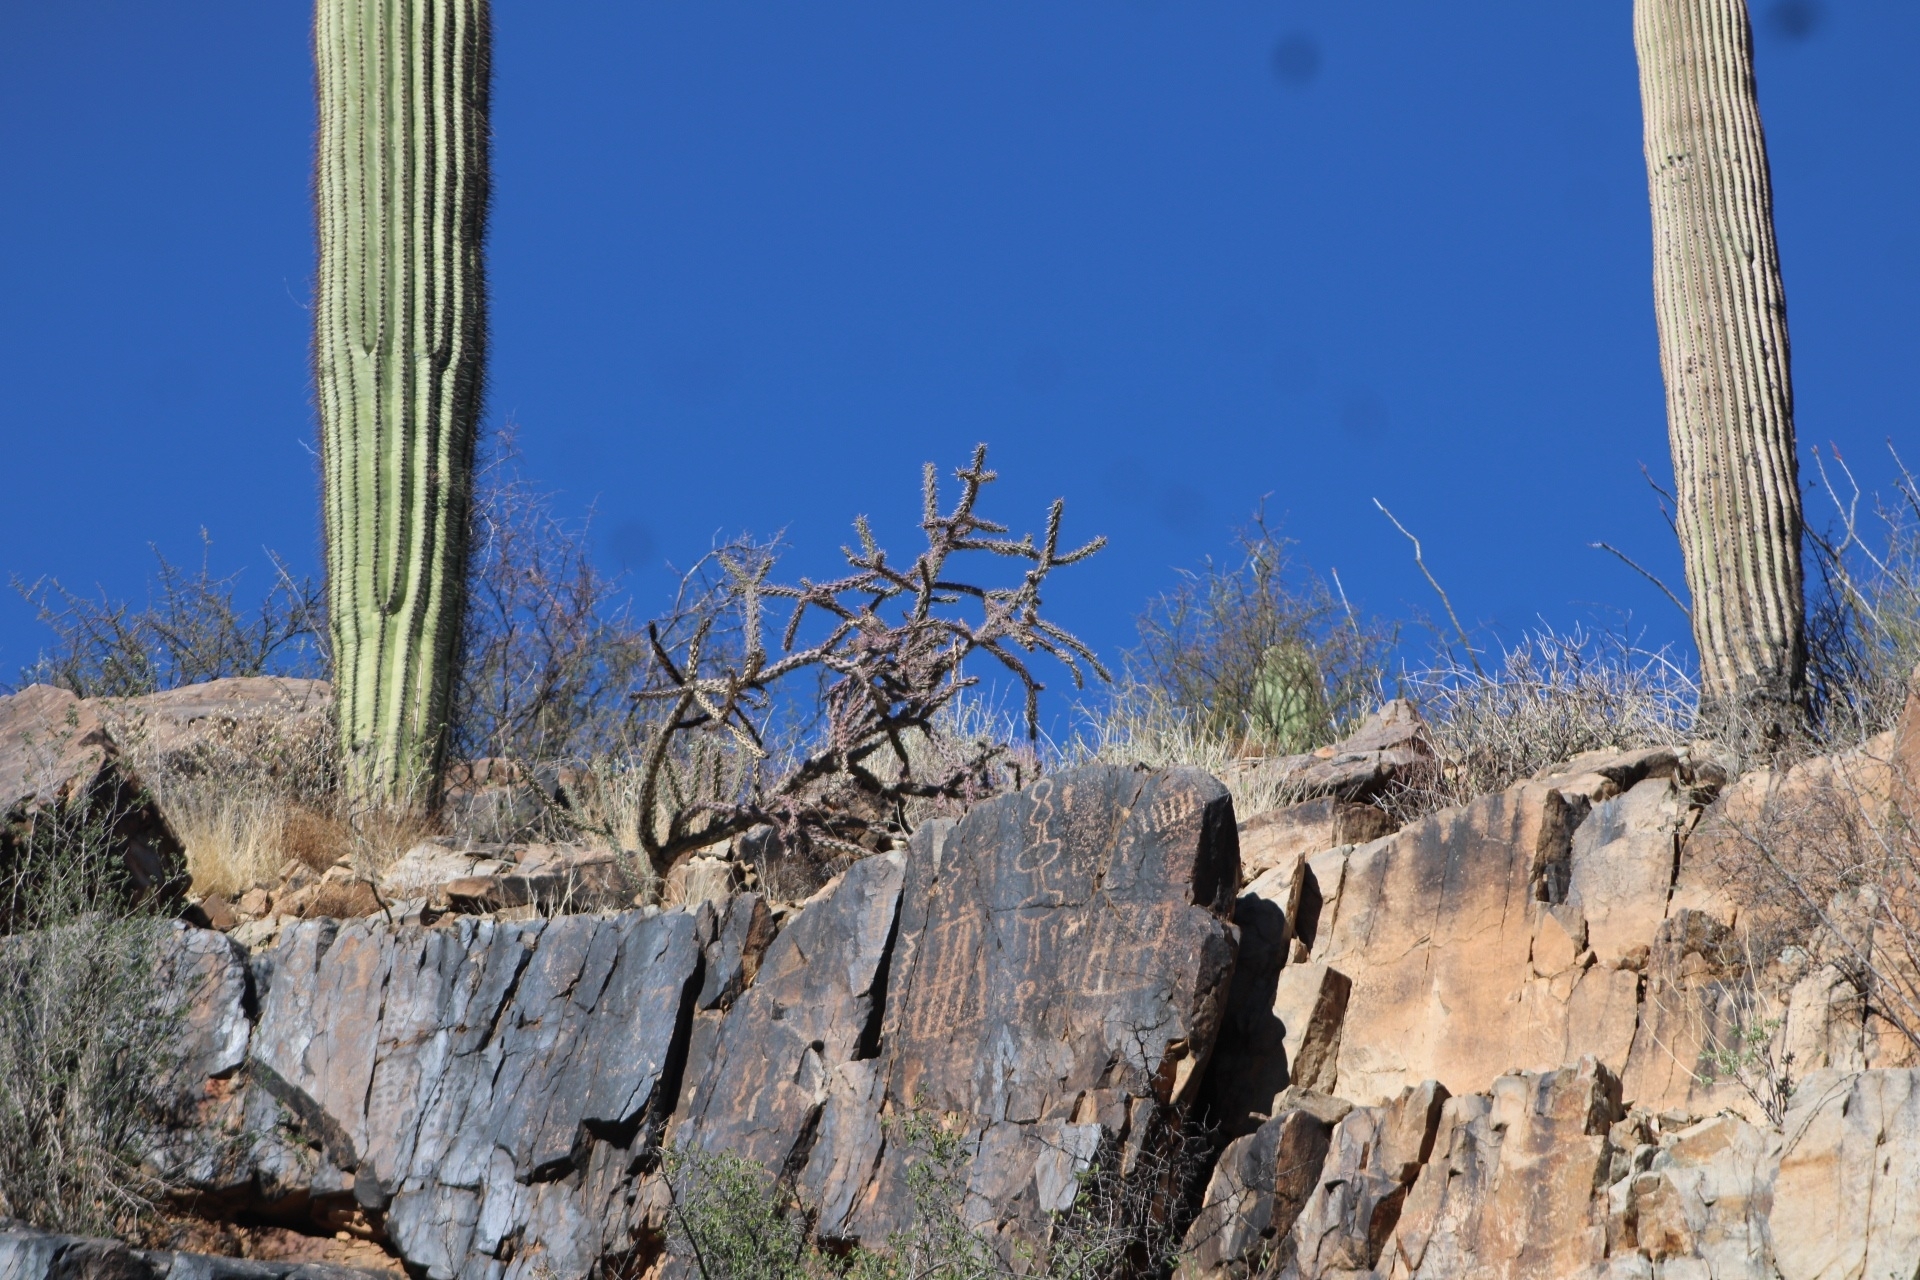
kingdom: Plantae
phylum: Tracheophyta
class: Magnoliopsida
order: Caryophyllales
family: Cactaceae
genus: Cylindropuntia
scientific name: Cylindropuntia thurberi
